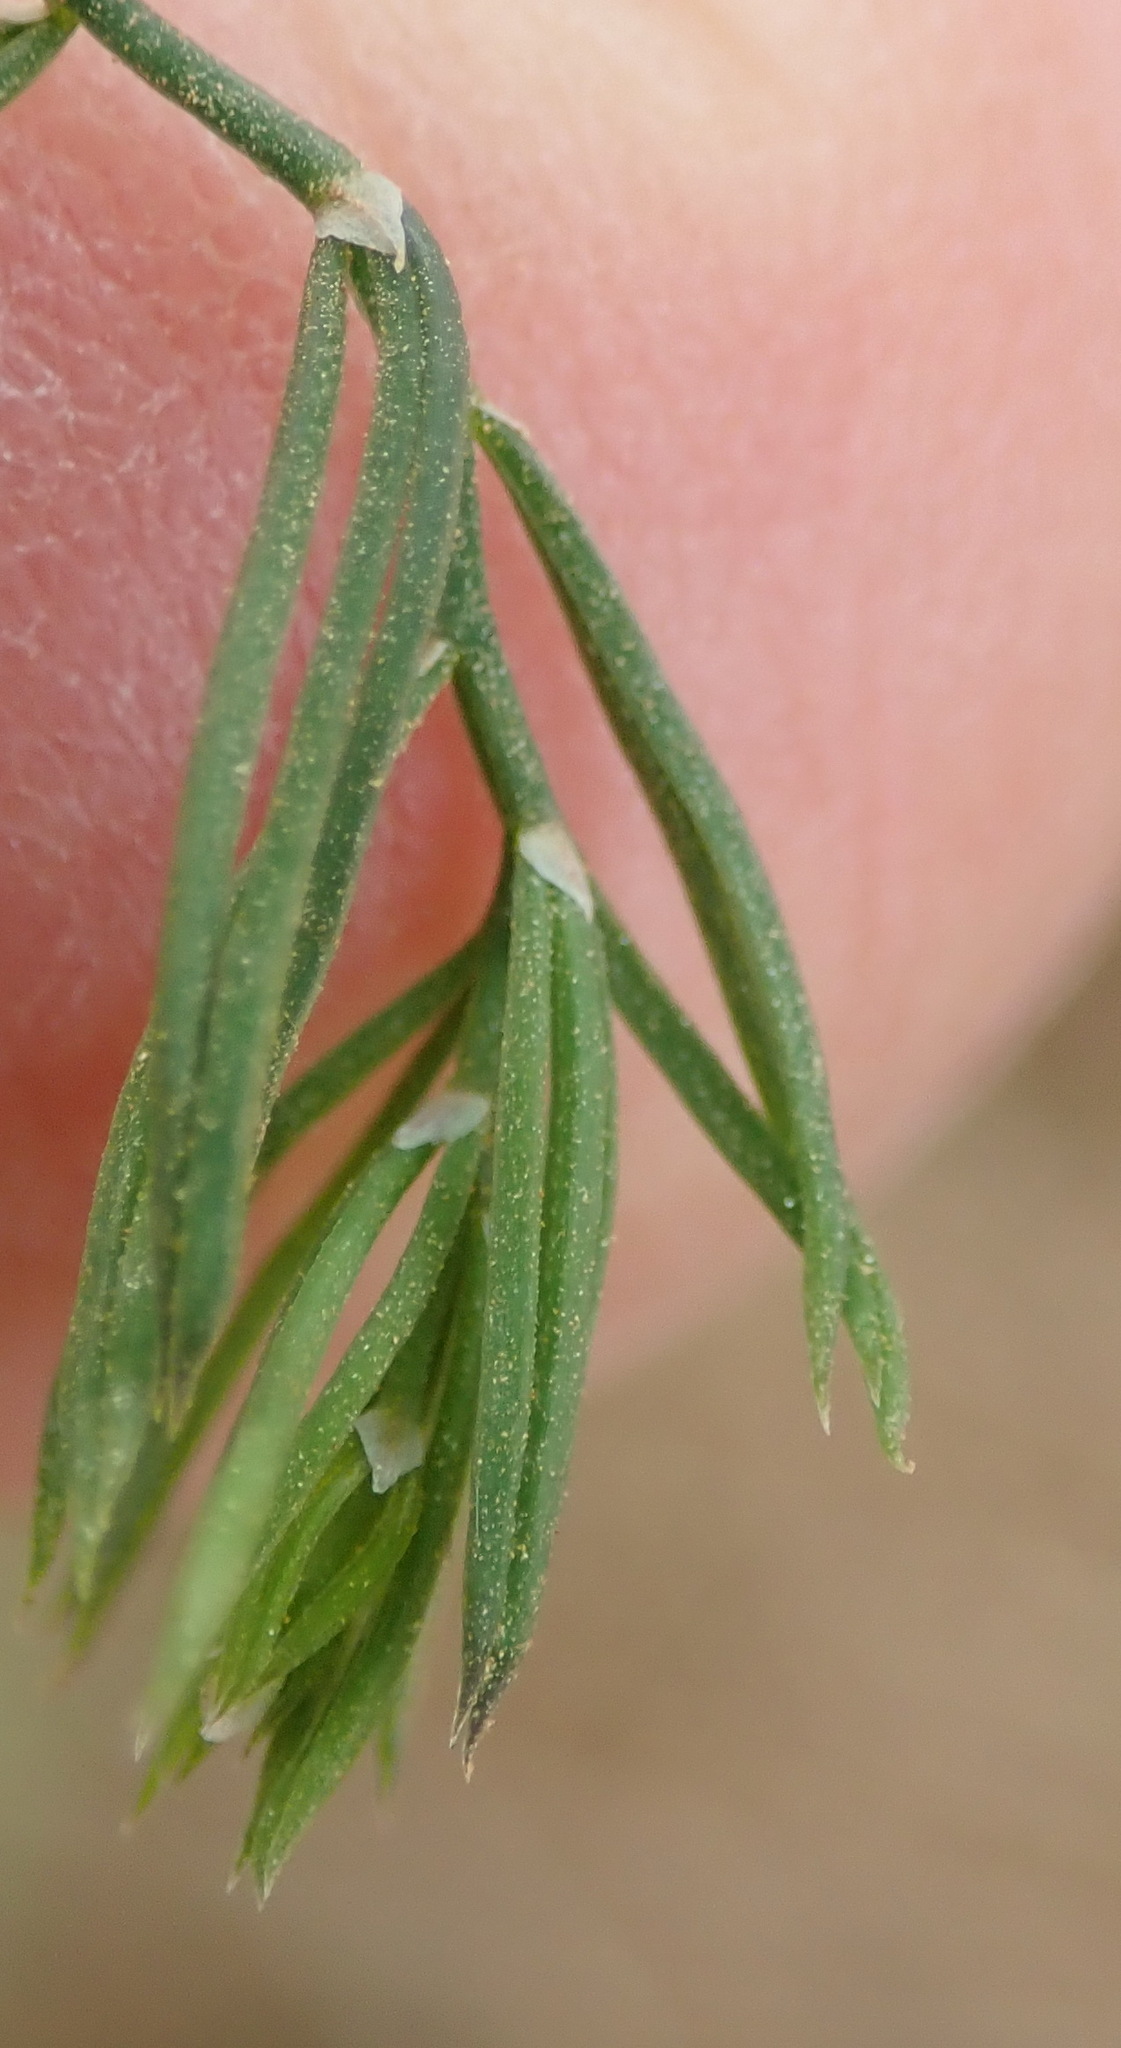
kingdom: Plantae
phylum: Tracheophyta
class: Liliopsida
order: Asparagales
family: Asparagaceae
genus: Asparagus
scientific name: Asparagus declinatus
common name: Bridal-creeper
